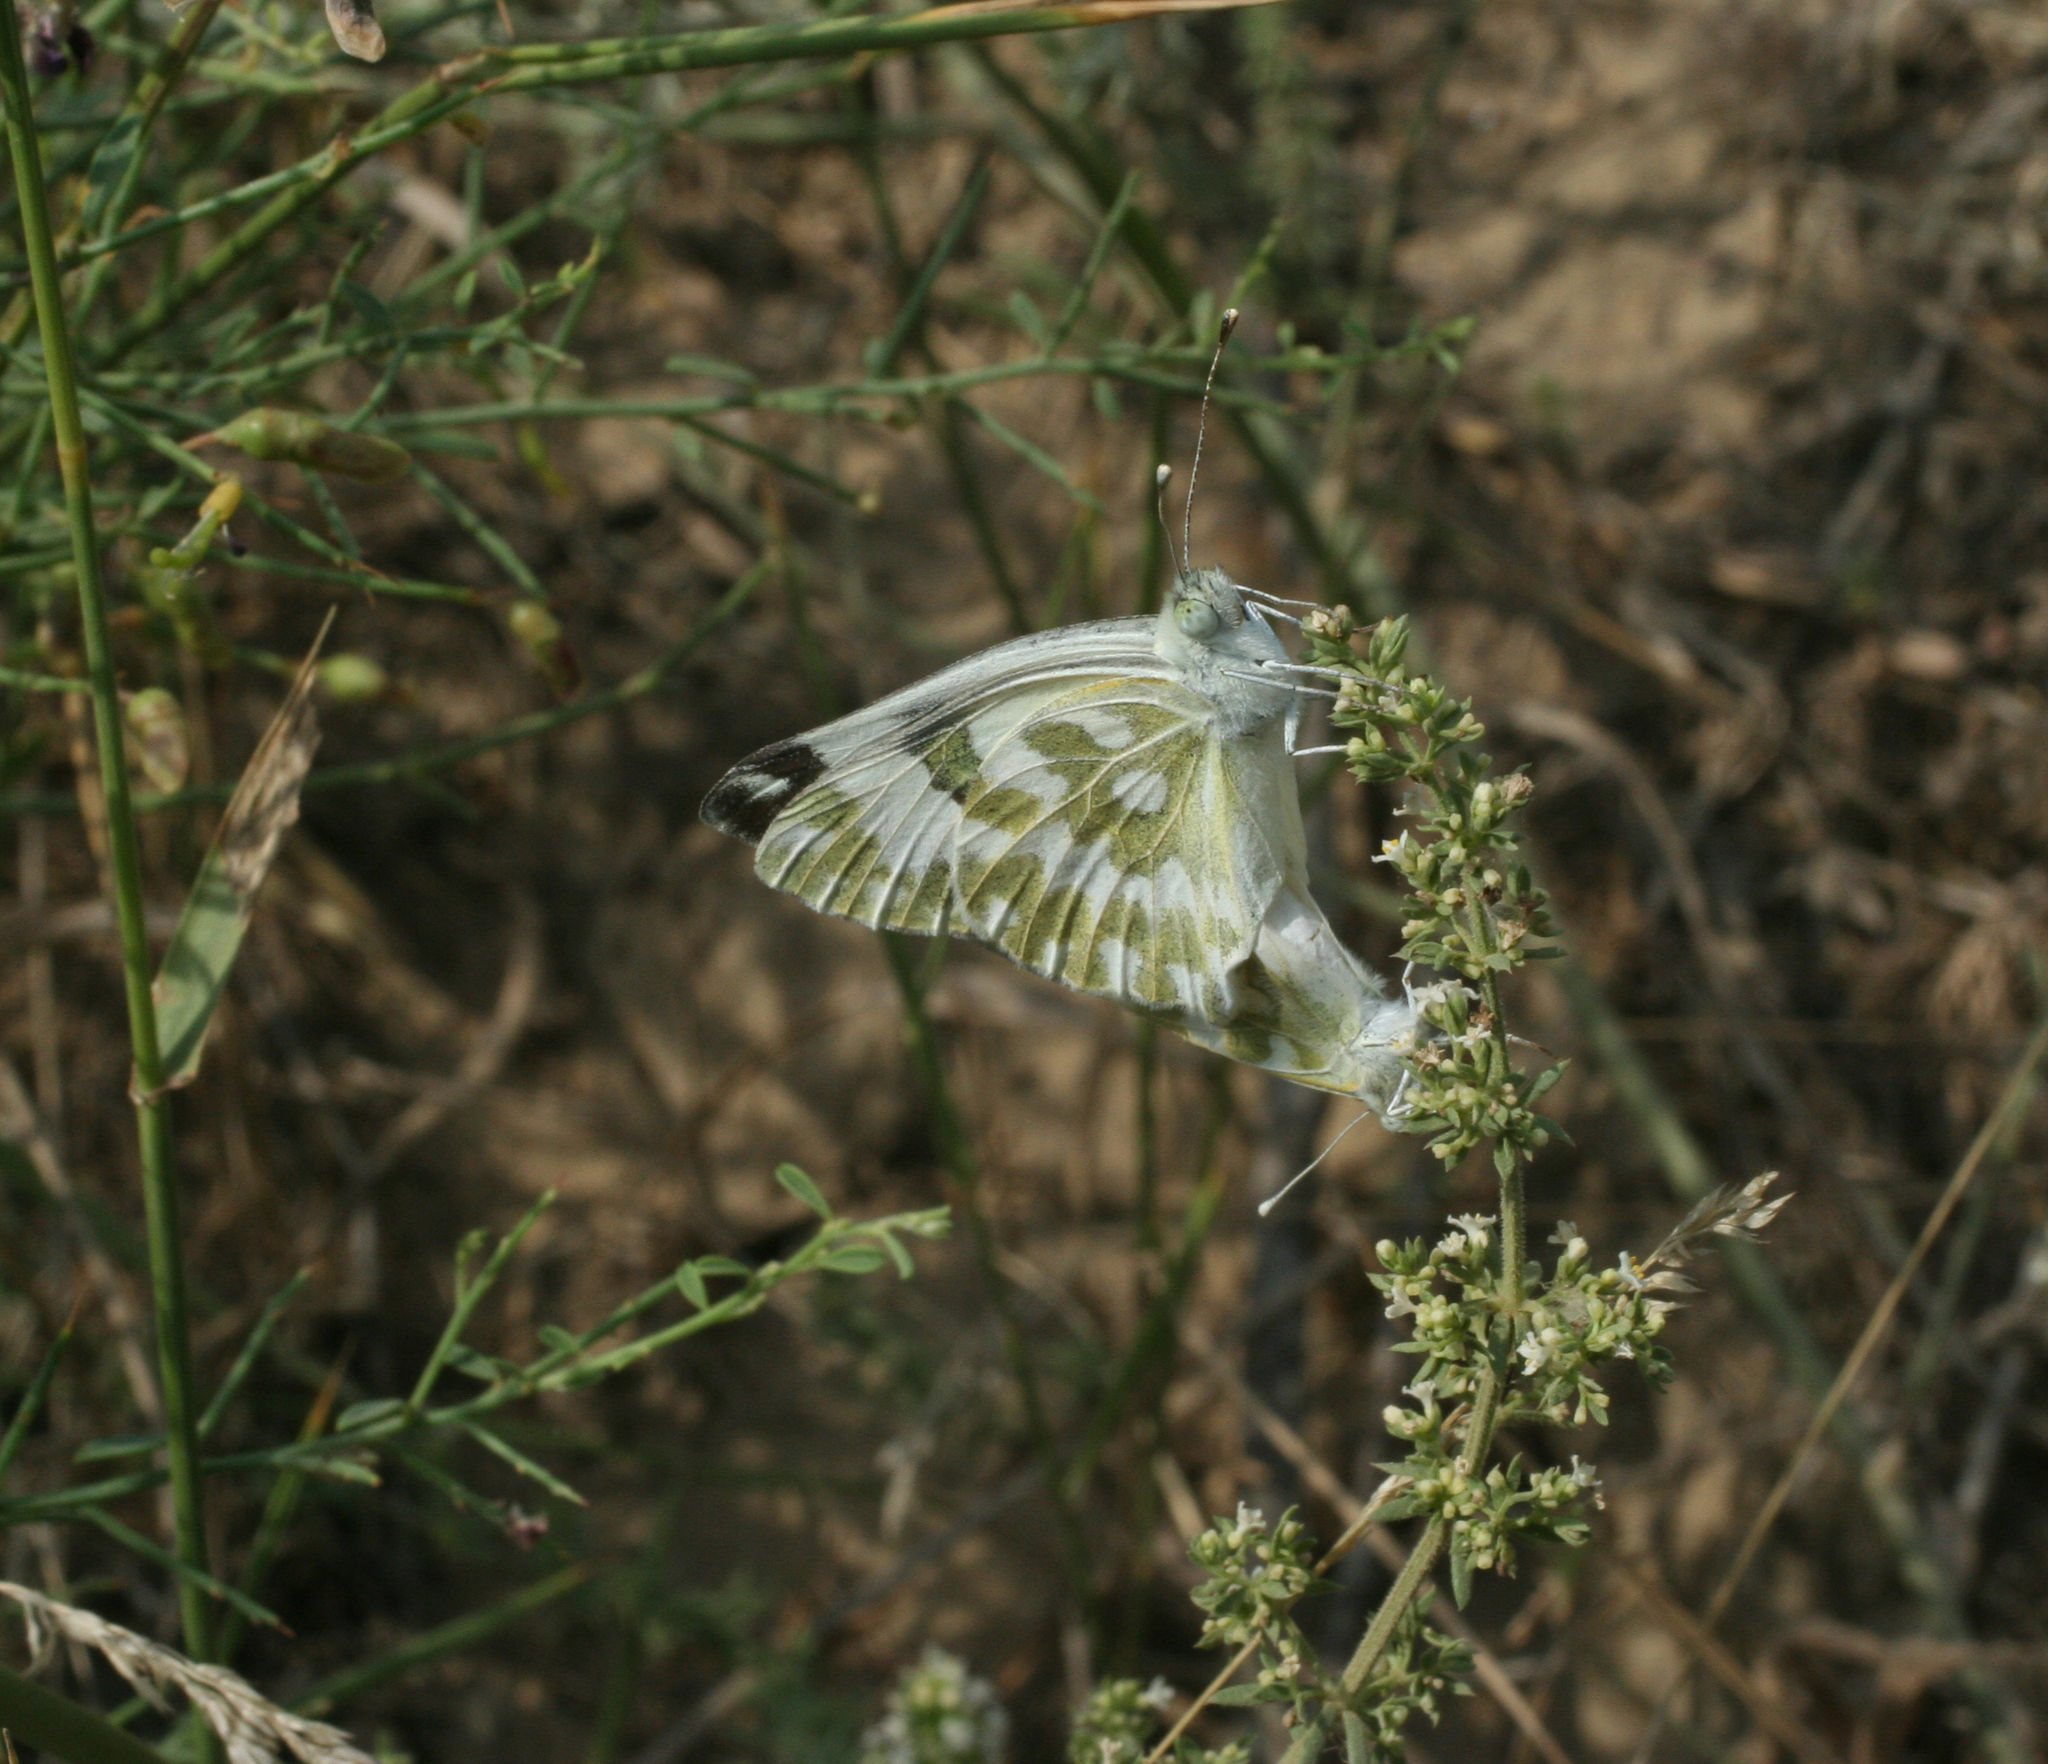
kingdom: Animalia
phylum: Arthropoda
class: Insecta
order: Lepidoptera
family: Pieridae
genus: Pontia
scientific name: Pontia edusa
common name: Eastern bath white
